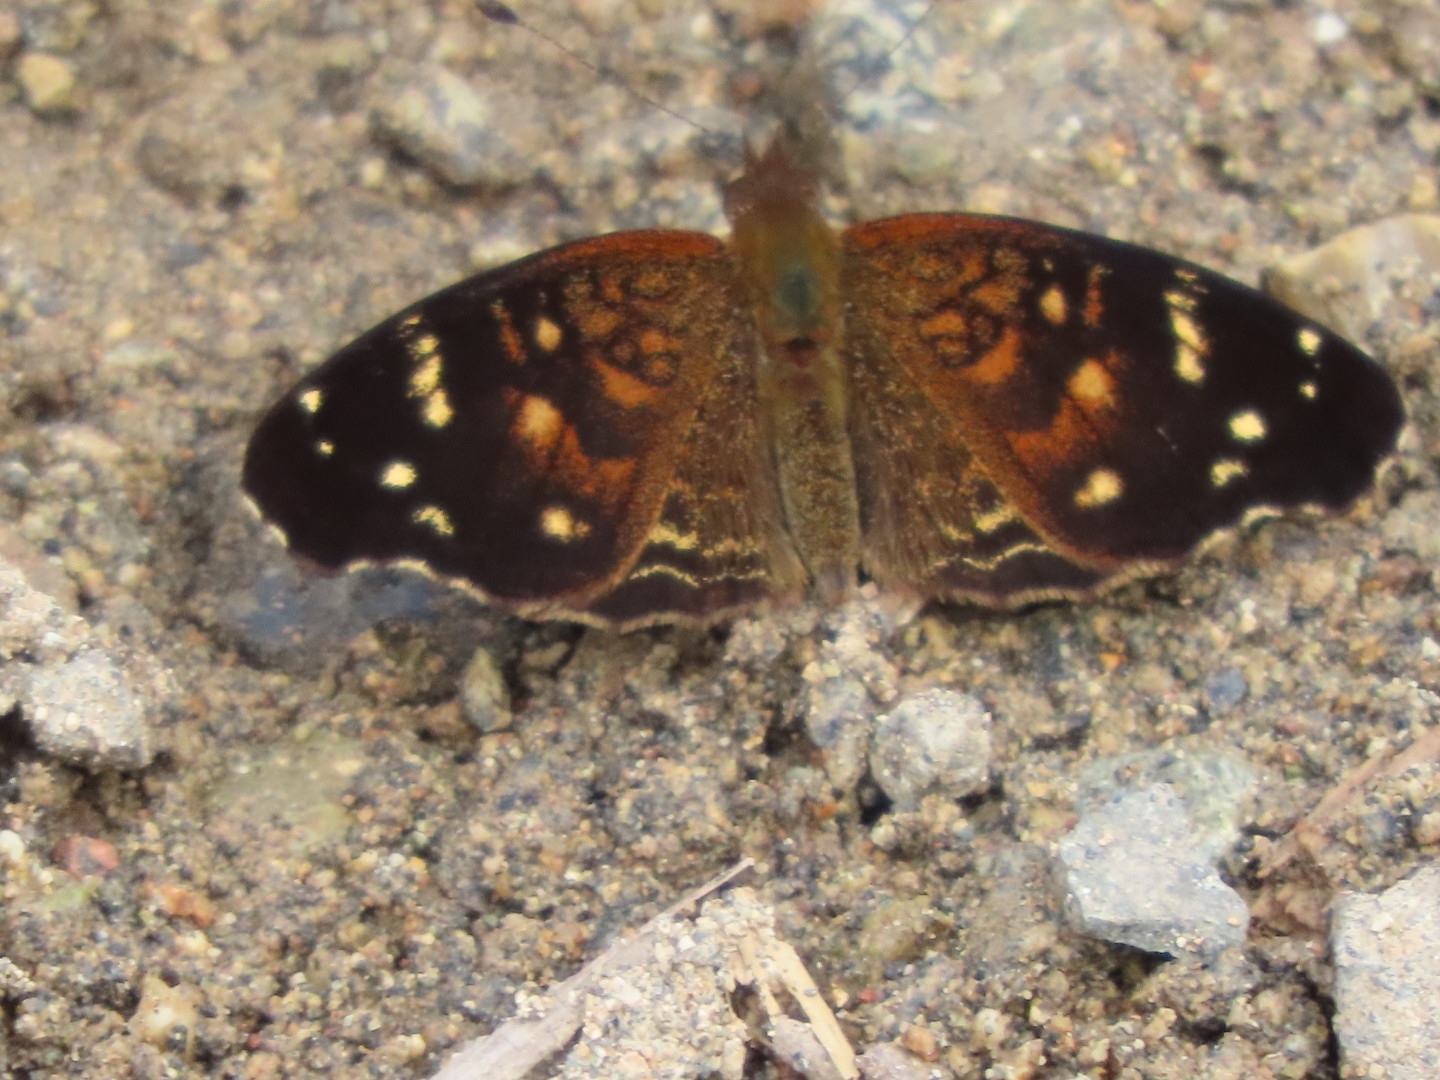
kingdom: Animalia
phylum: Arthropoda
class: Insecta
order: Lepidoptera
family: Nymphalidae
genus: Anthanassa
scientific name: Anthanassa atronia
